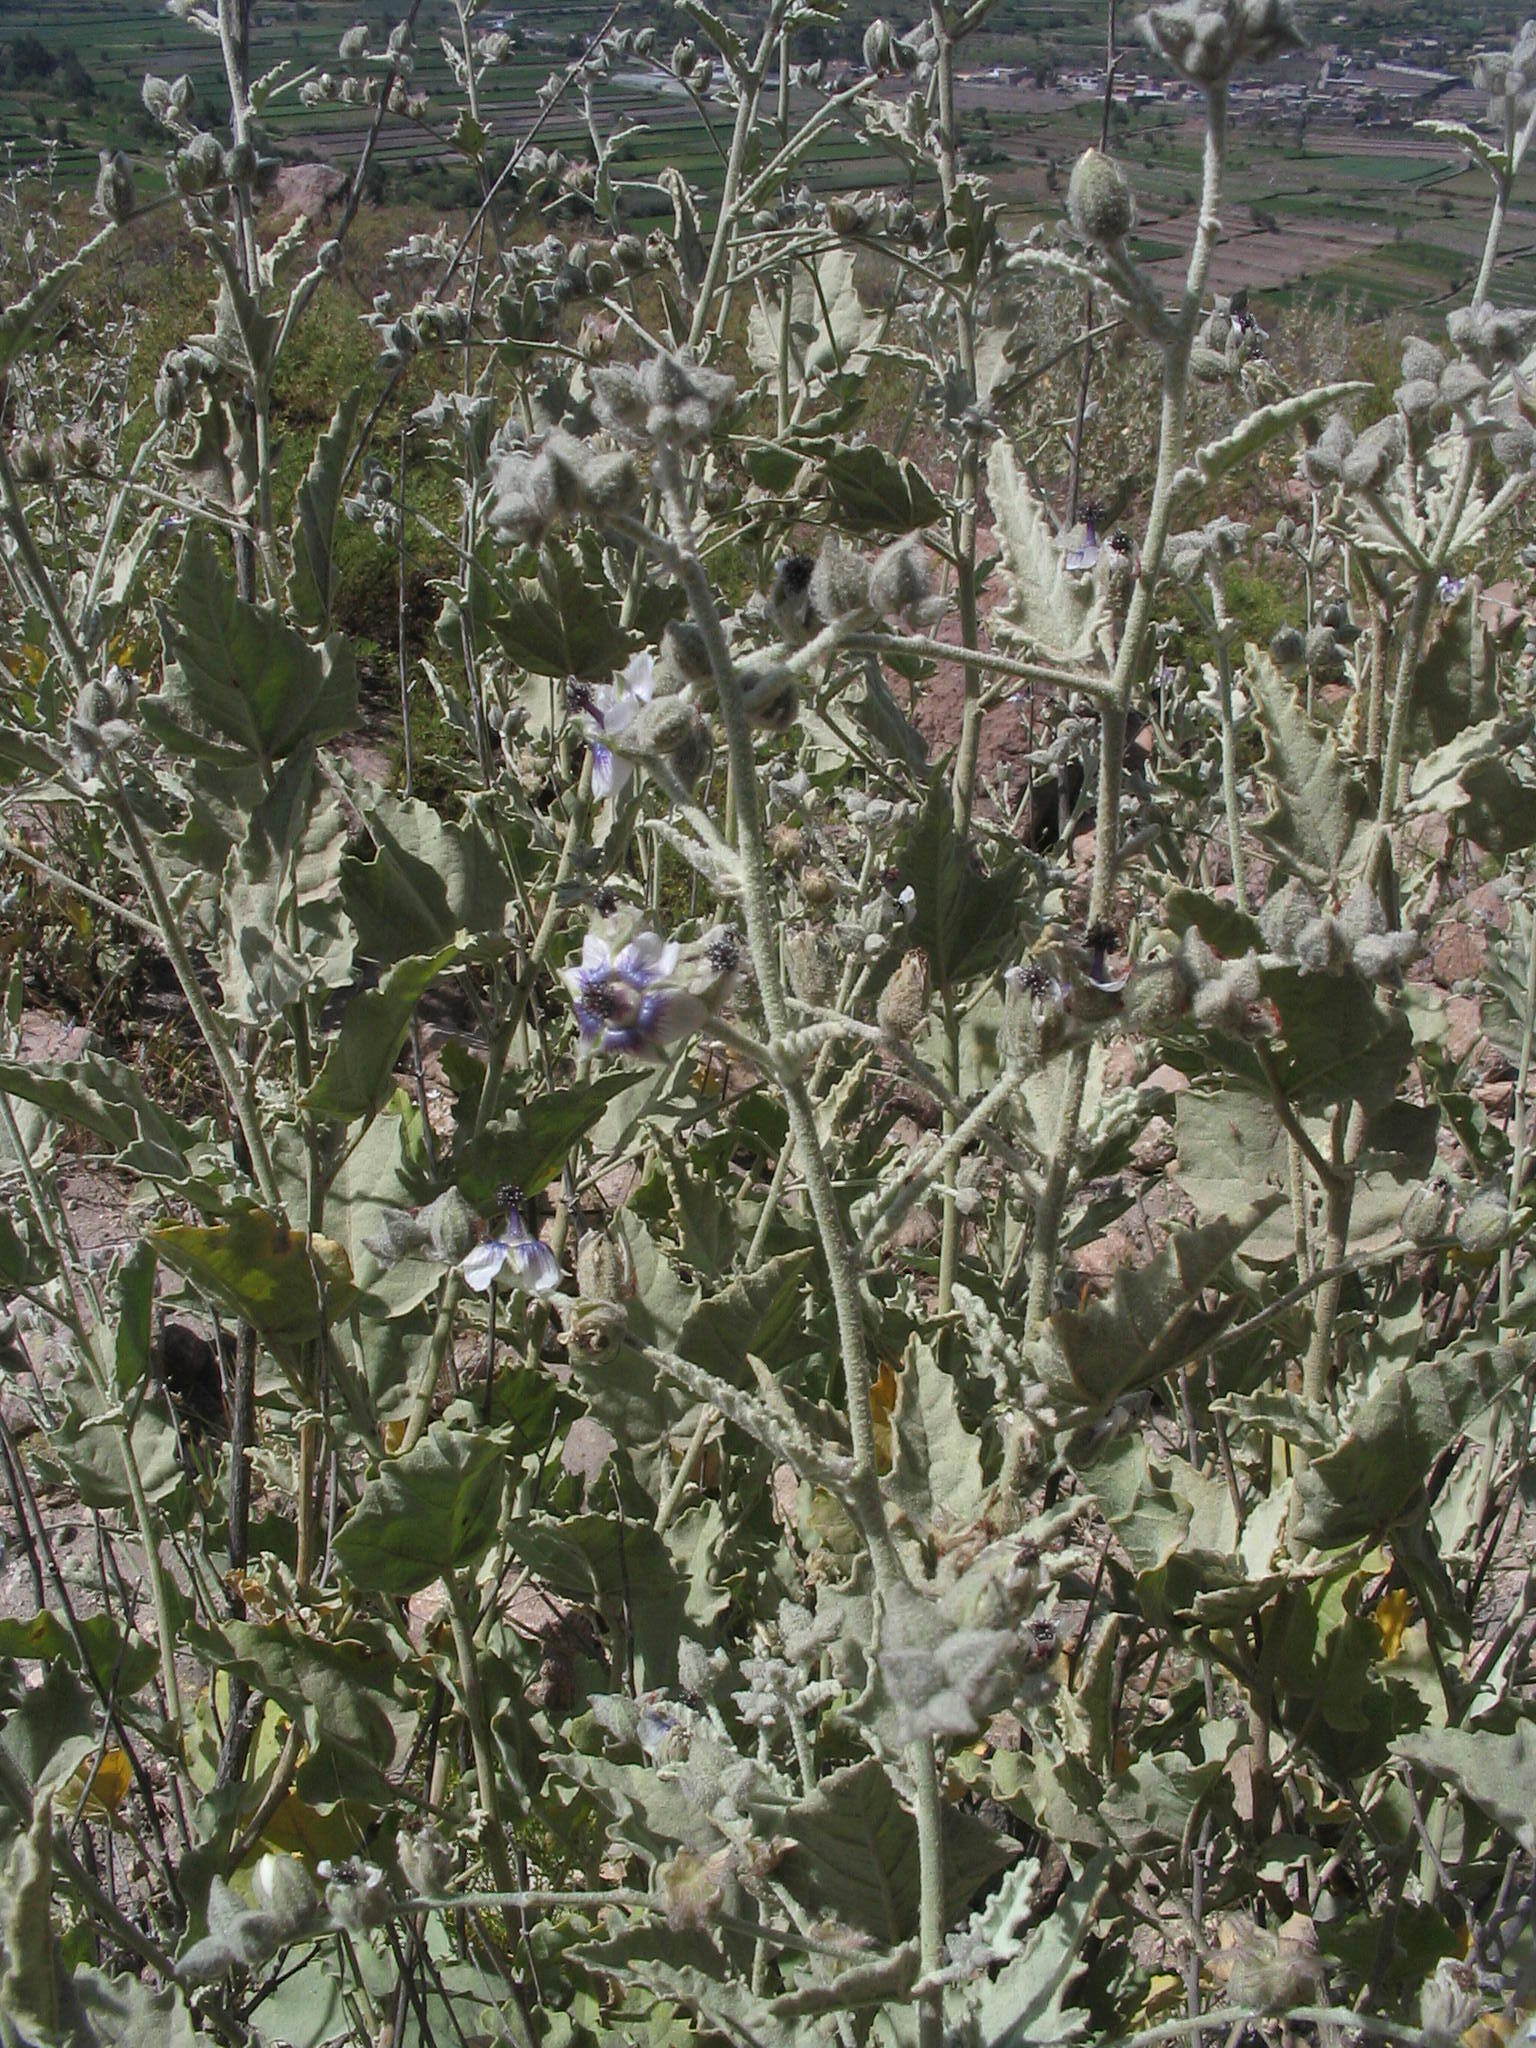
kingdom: Plantae
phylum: Tracheophyta
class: Magnoliopsida
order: Malvales
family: Malvaceae
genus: Tarasa
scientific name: Tarasa operculata
